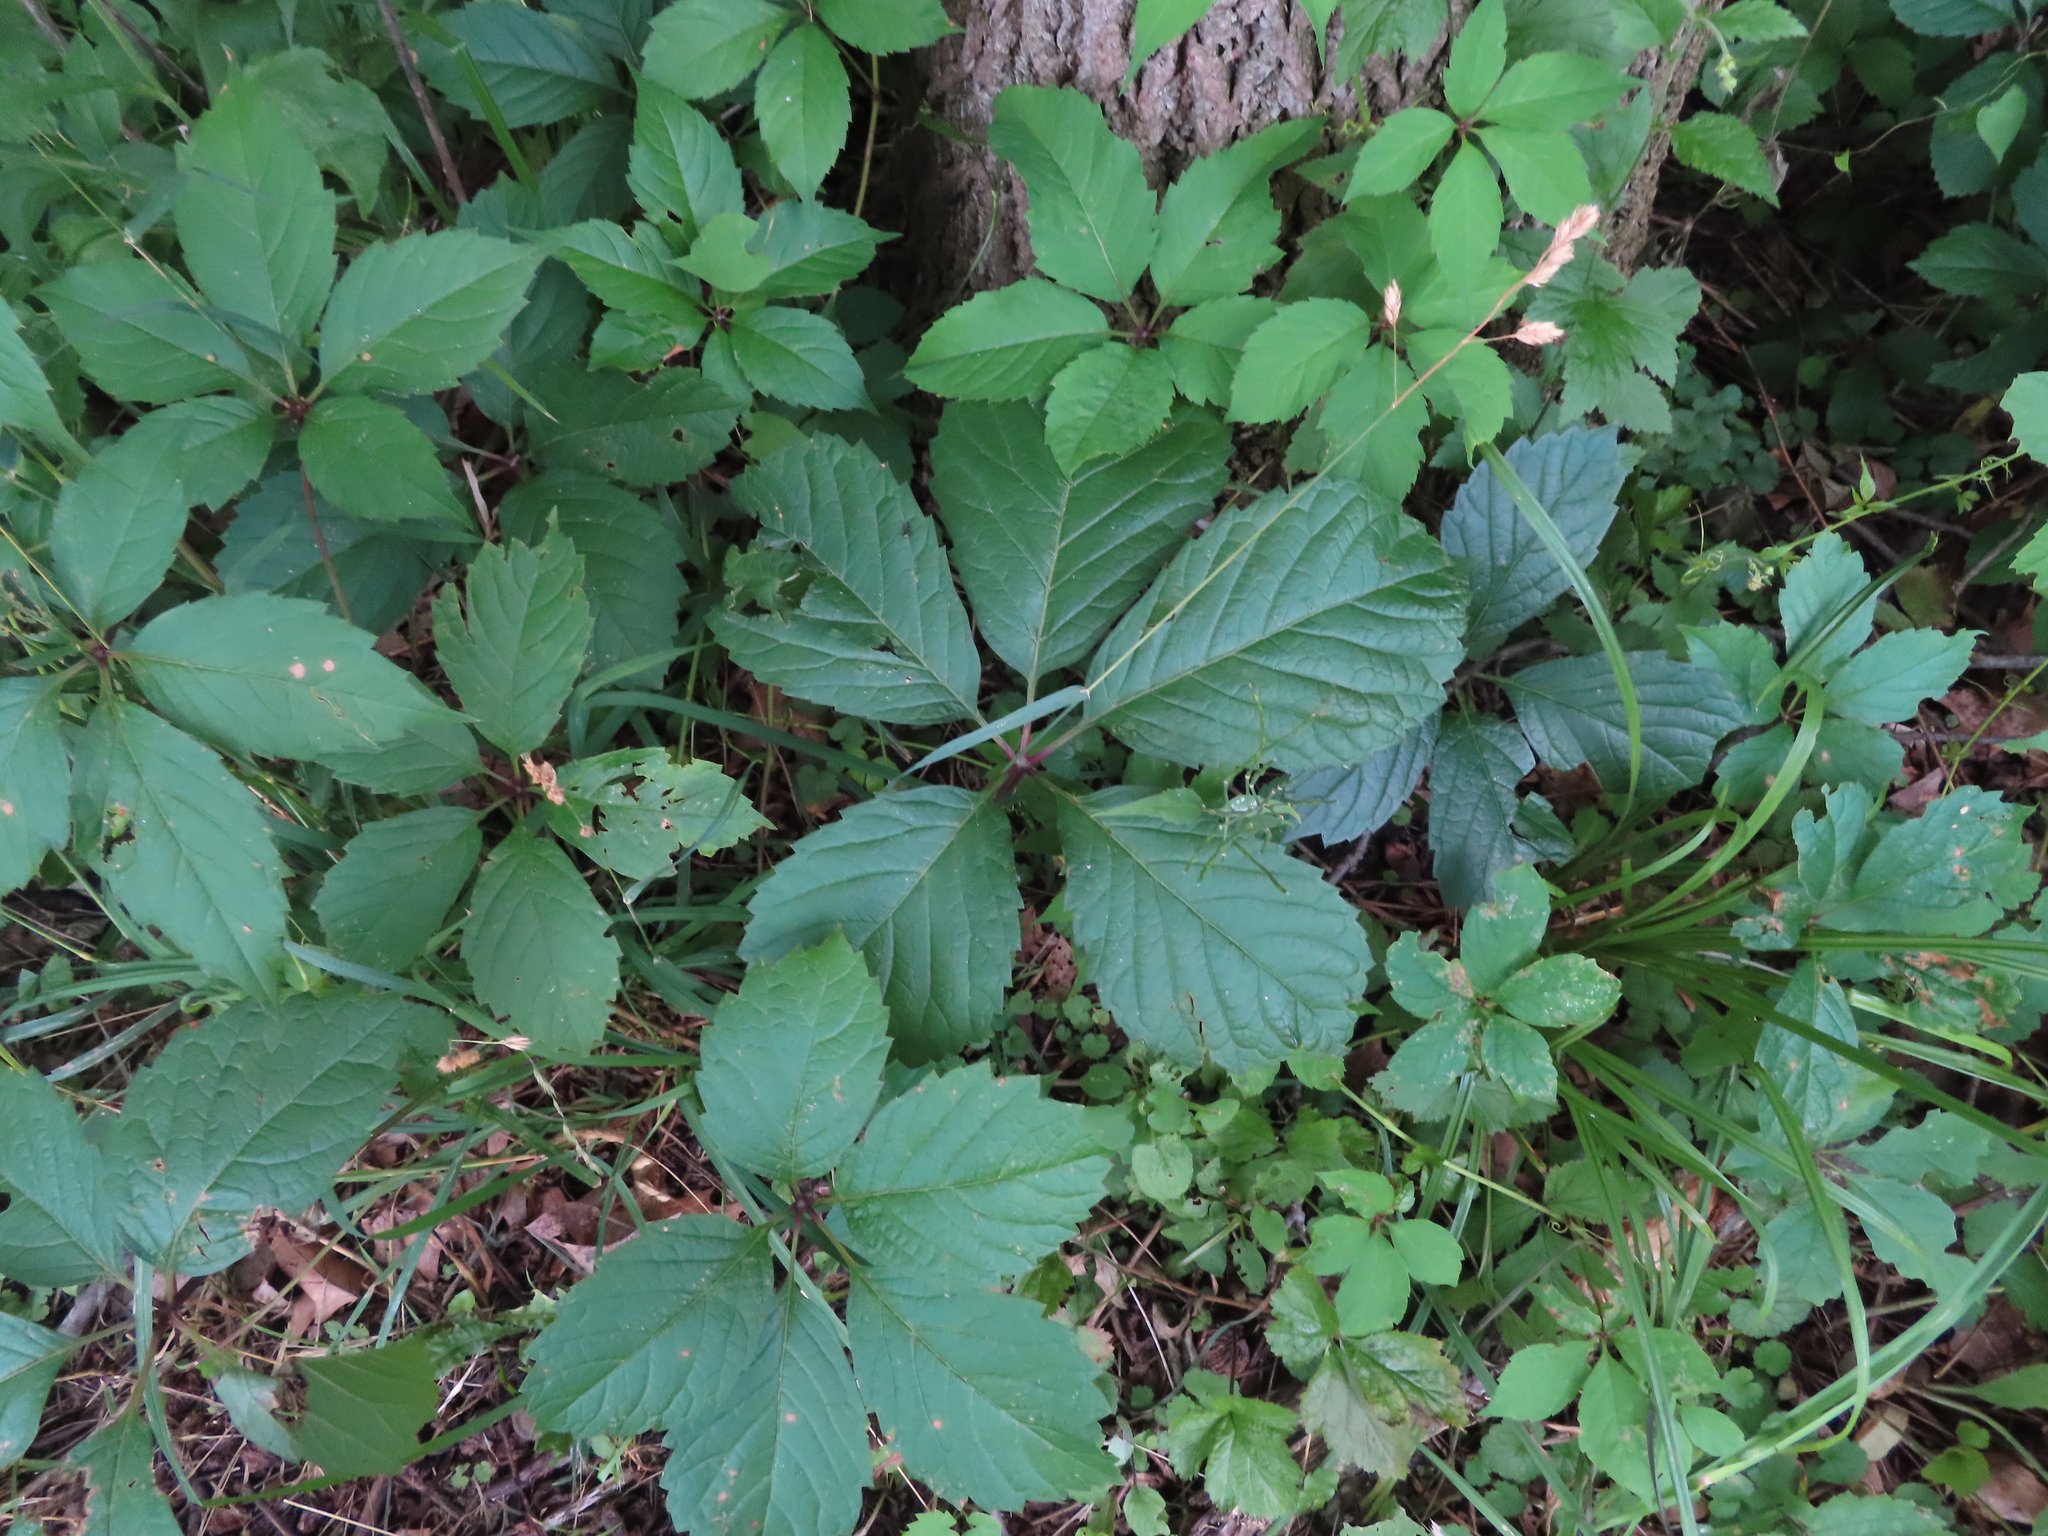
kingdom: Plantae
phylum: Tracheophyta
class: Magnoliopsida
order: Vitales
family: Vitaceae
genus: Parthenocissus
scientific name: Parthenocissus inserta
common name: False virginia-creeper
